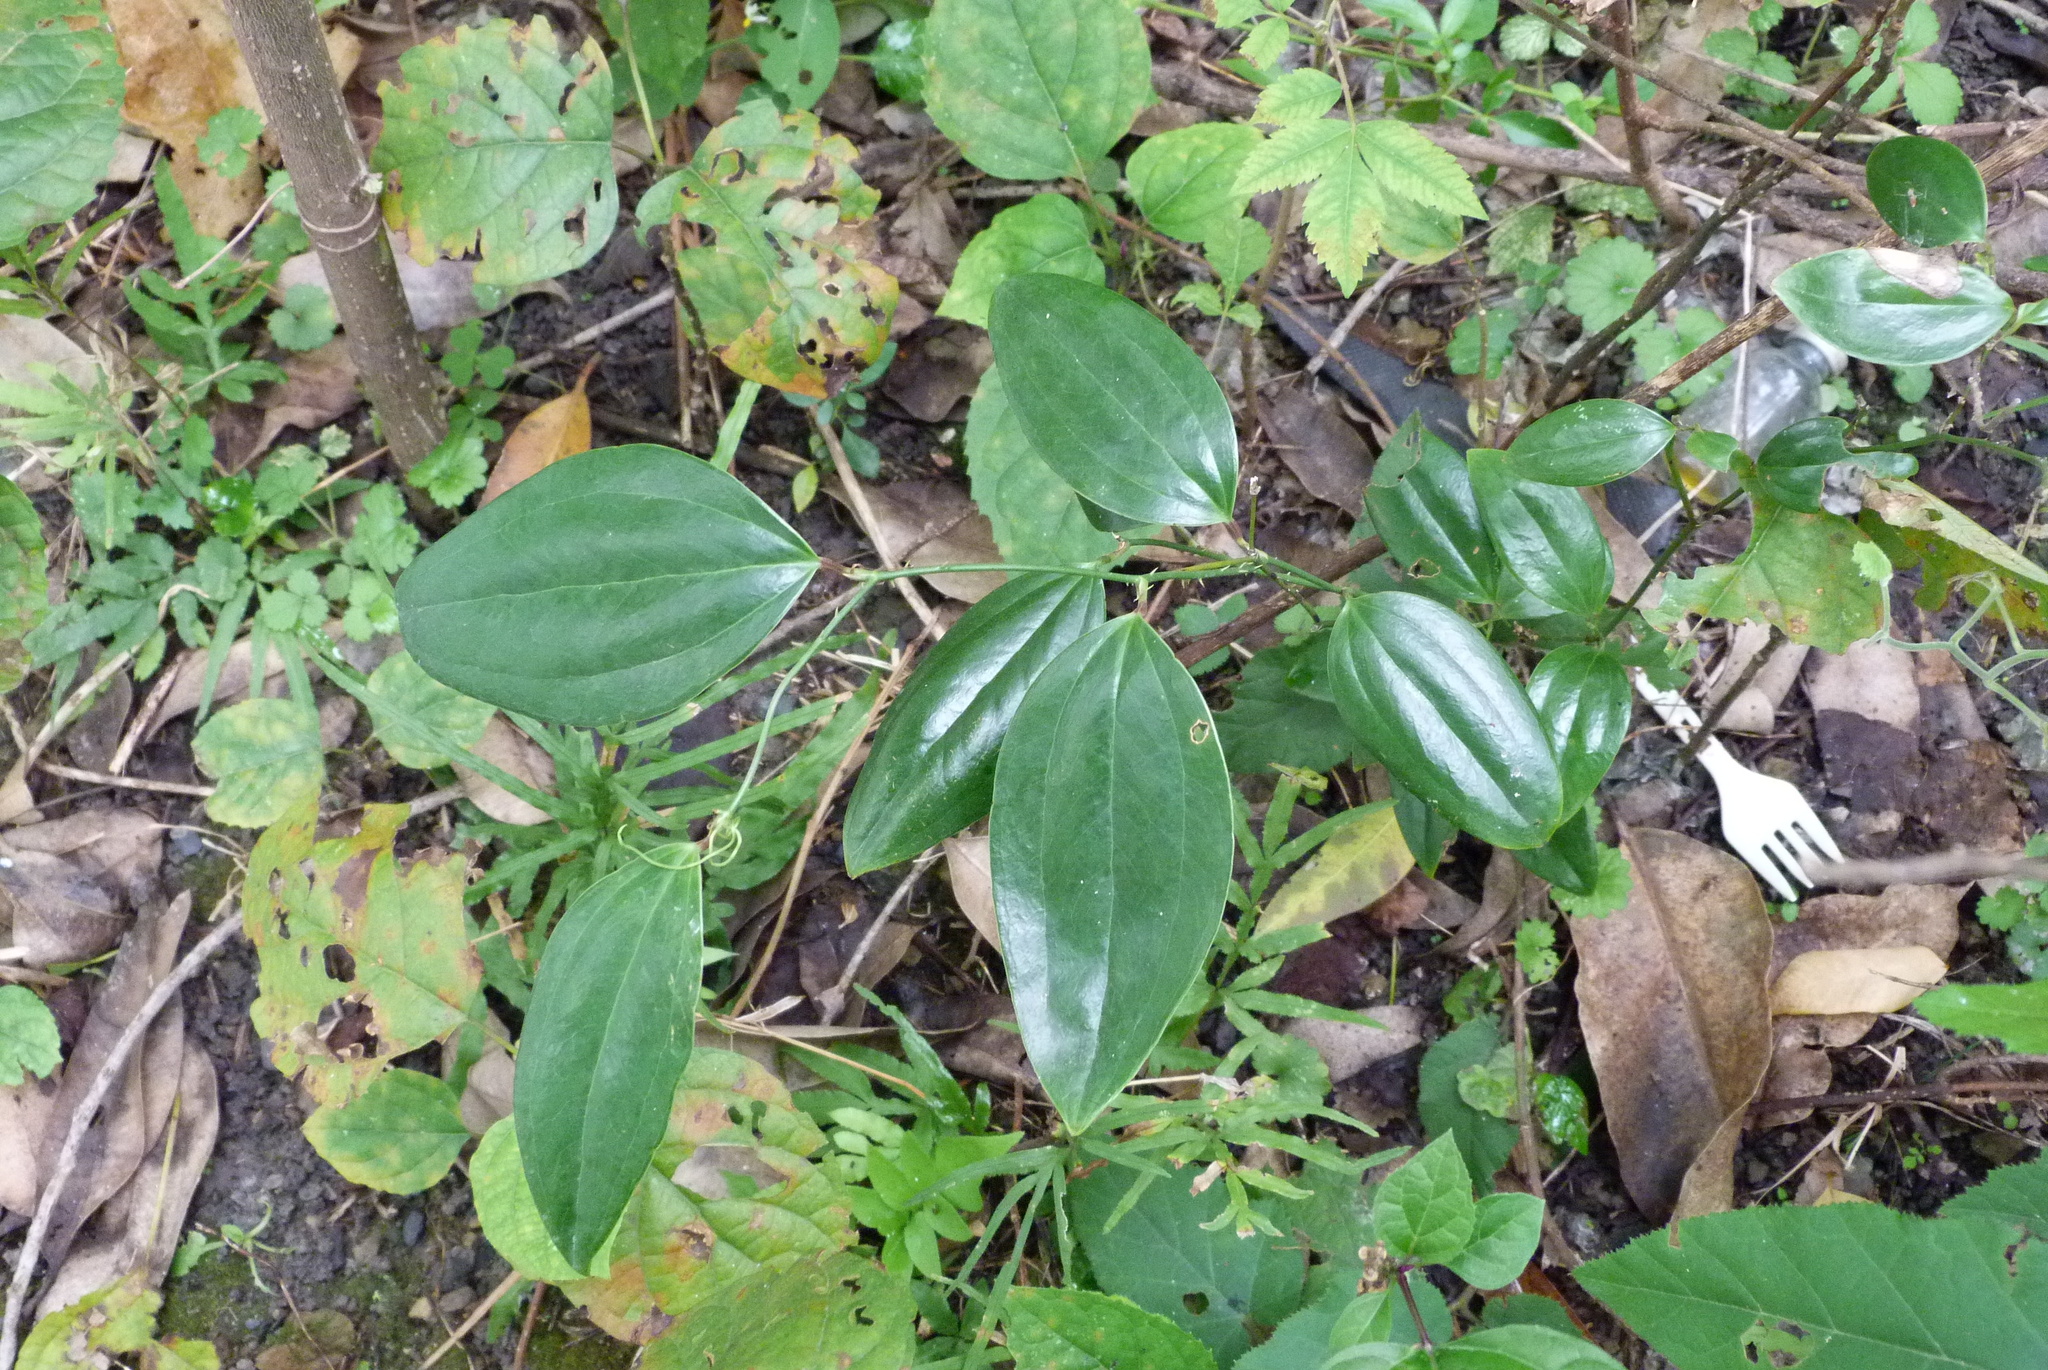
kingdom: Plantae
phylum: Tracheophyta
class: Liliopsida
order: Liliales
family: Smilacaceae
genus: Smilax
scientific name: Smilax davidiana
